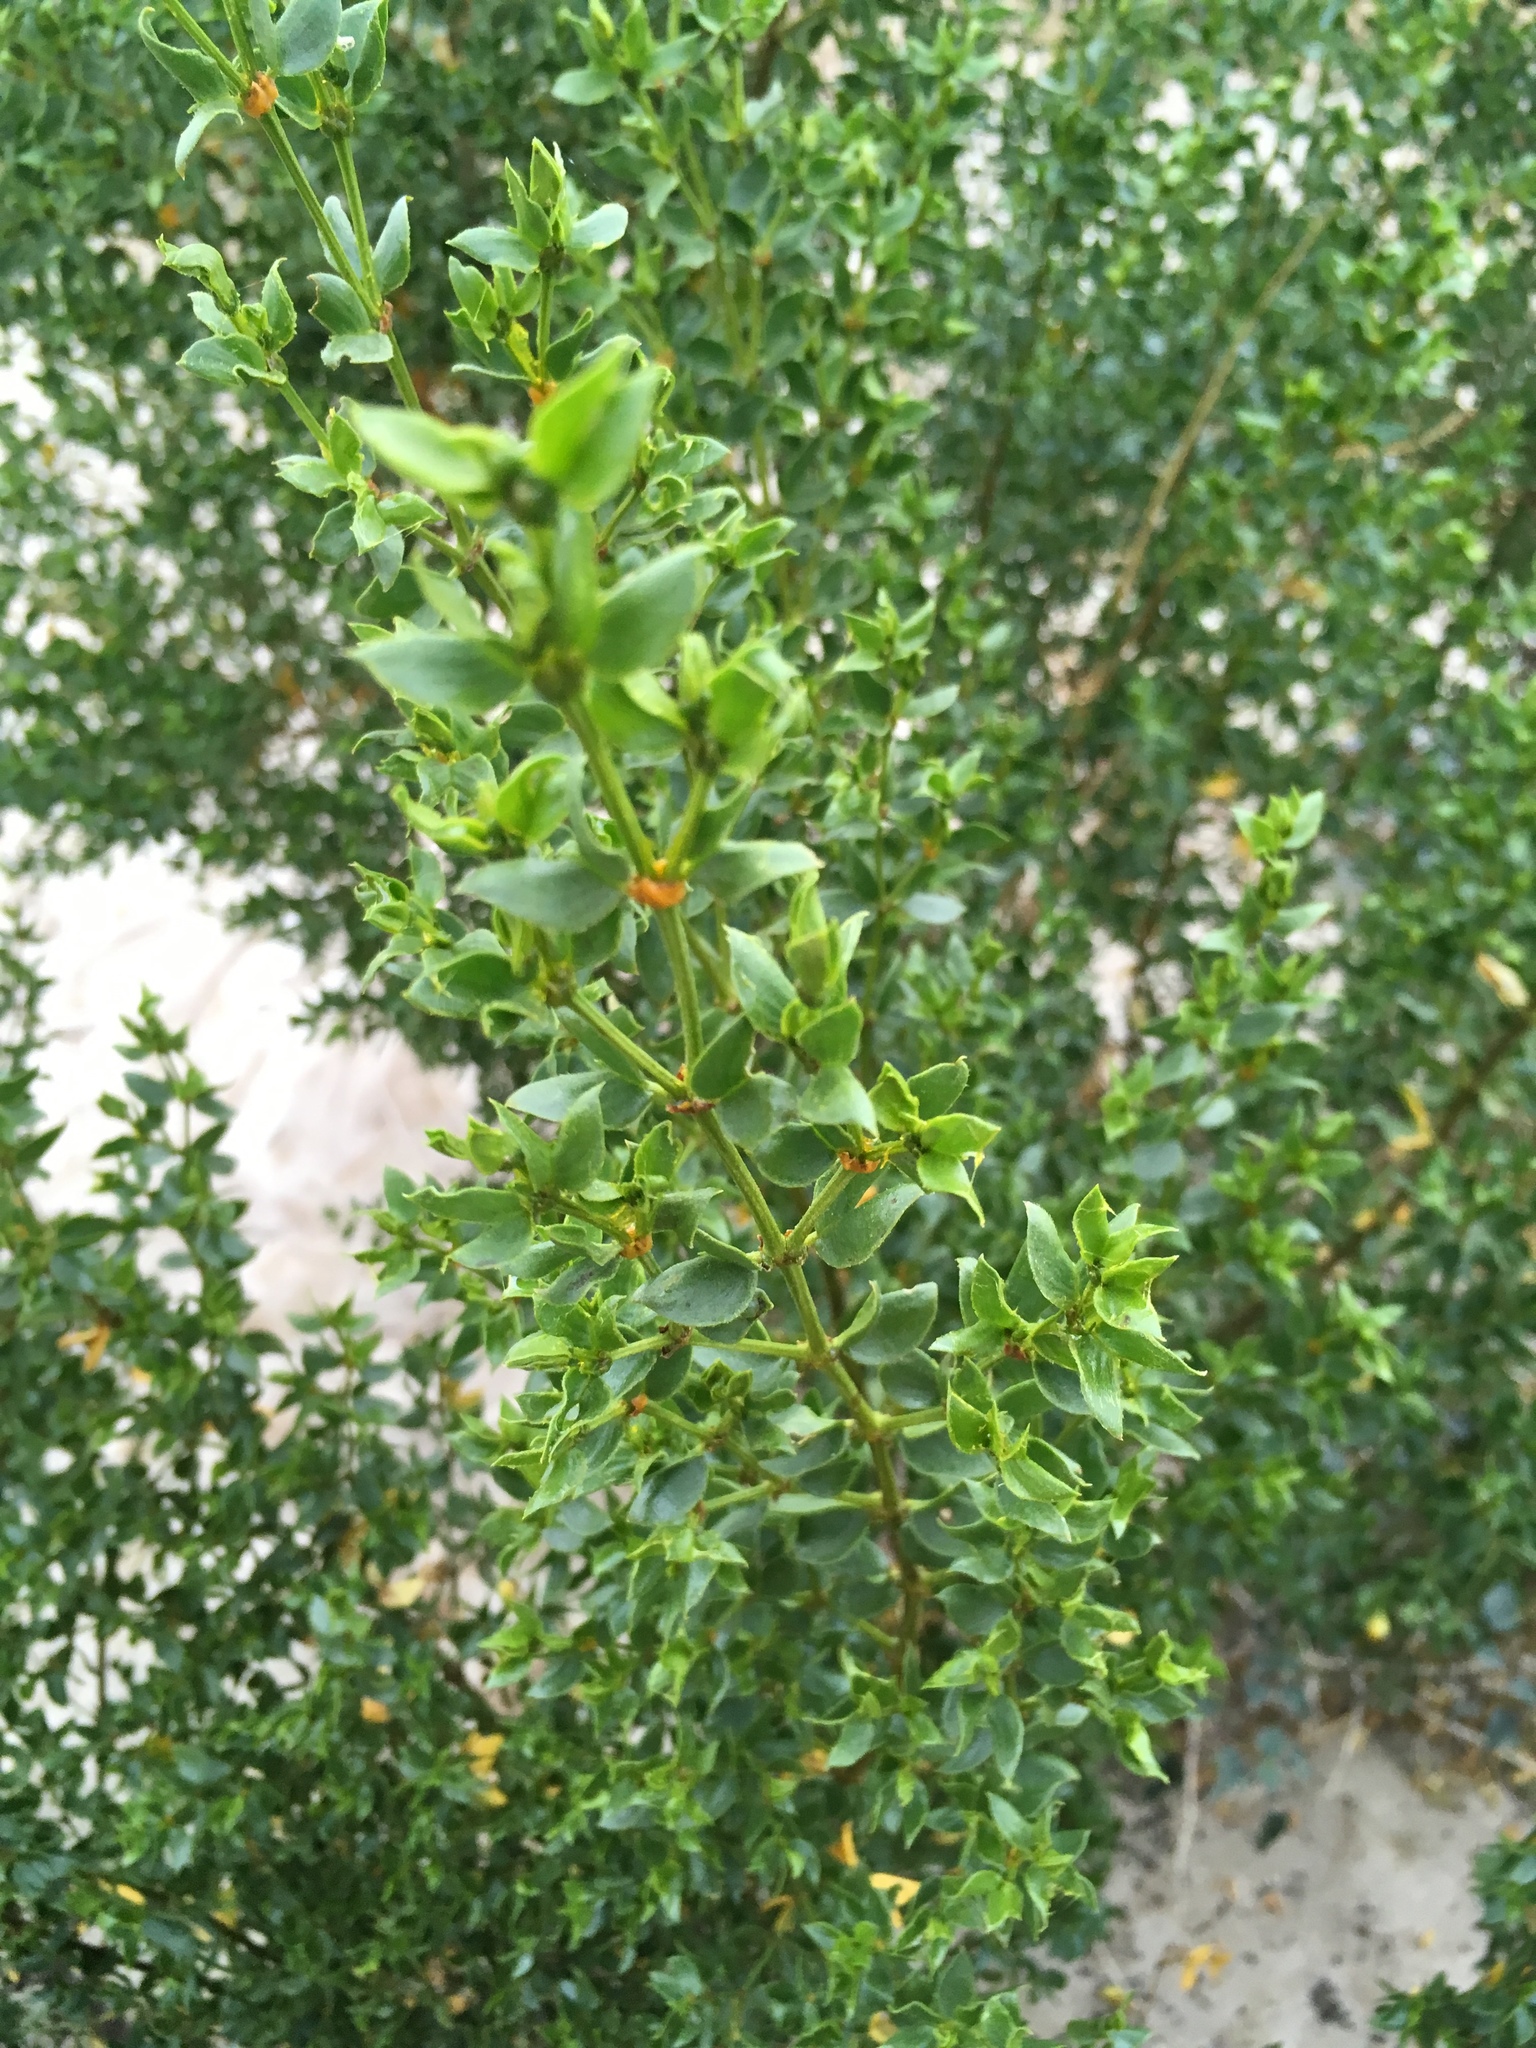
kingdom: Plantae
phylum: Tracheophyta
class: Magnoliopsida
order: Zygophyllales
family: Zygophyllaceae
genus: Larrea
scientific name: Larrea tridentata
